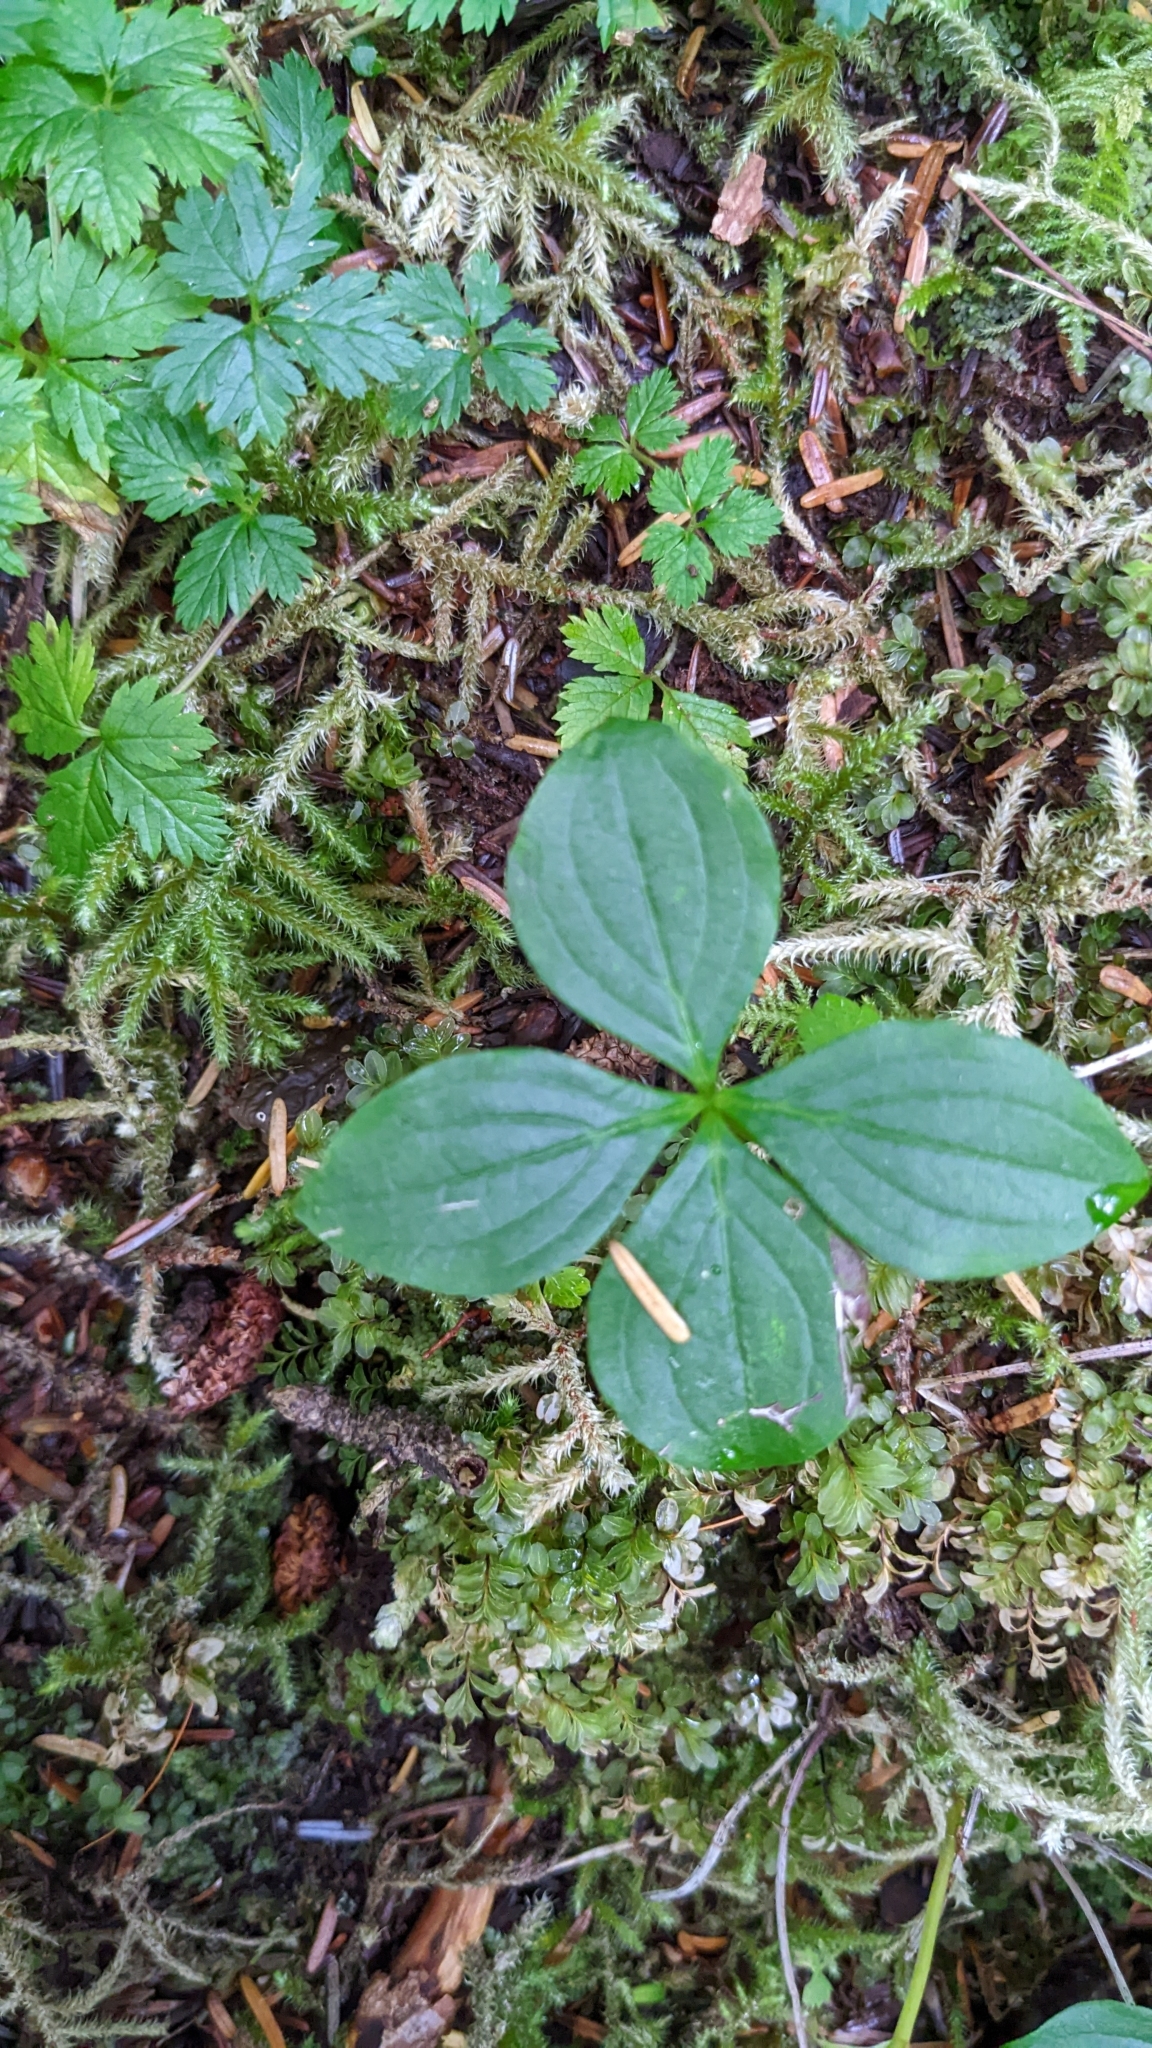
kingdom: Plantae
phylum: Tracheophyta
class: Magnoliopsida
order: Cornales
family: Cornaceae
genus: Cornus
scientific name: Cornus unalaschkensis
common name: Alaska bunchberry
